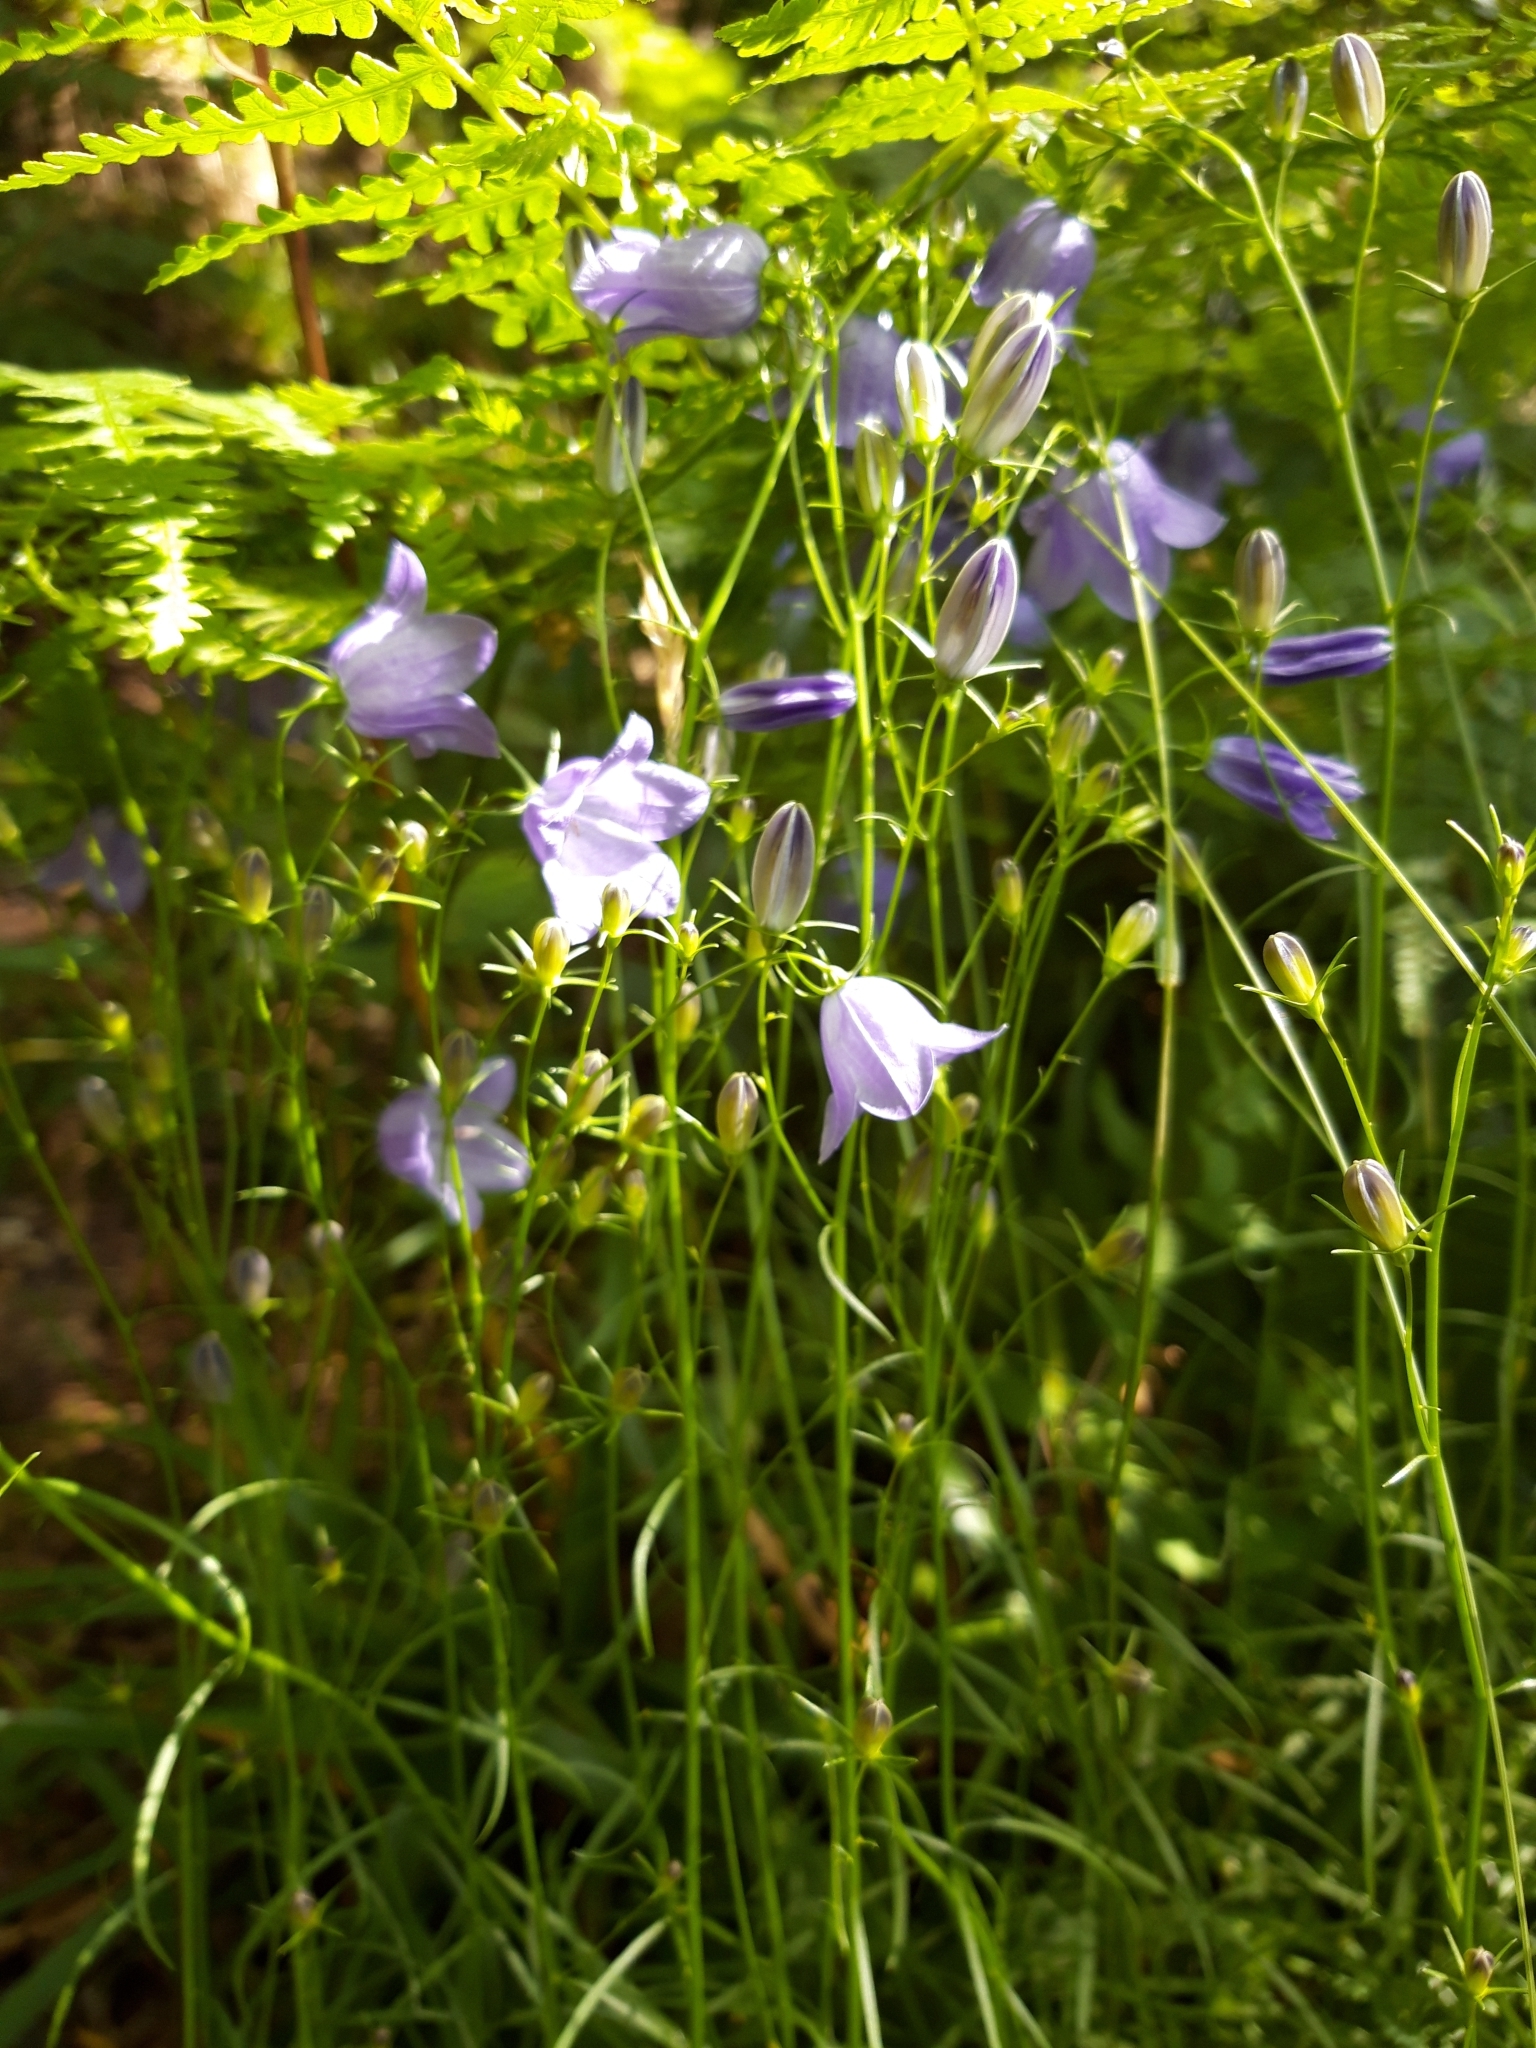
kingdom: Plantae
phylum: Tracheophyta
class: Magnoliopsida
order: Asterales
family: Campanulaceae
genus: Campanula
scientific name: Campanula rotundifolia
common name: Harebell
